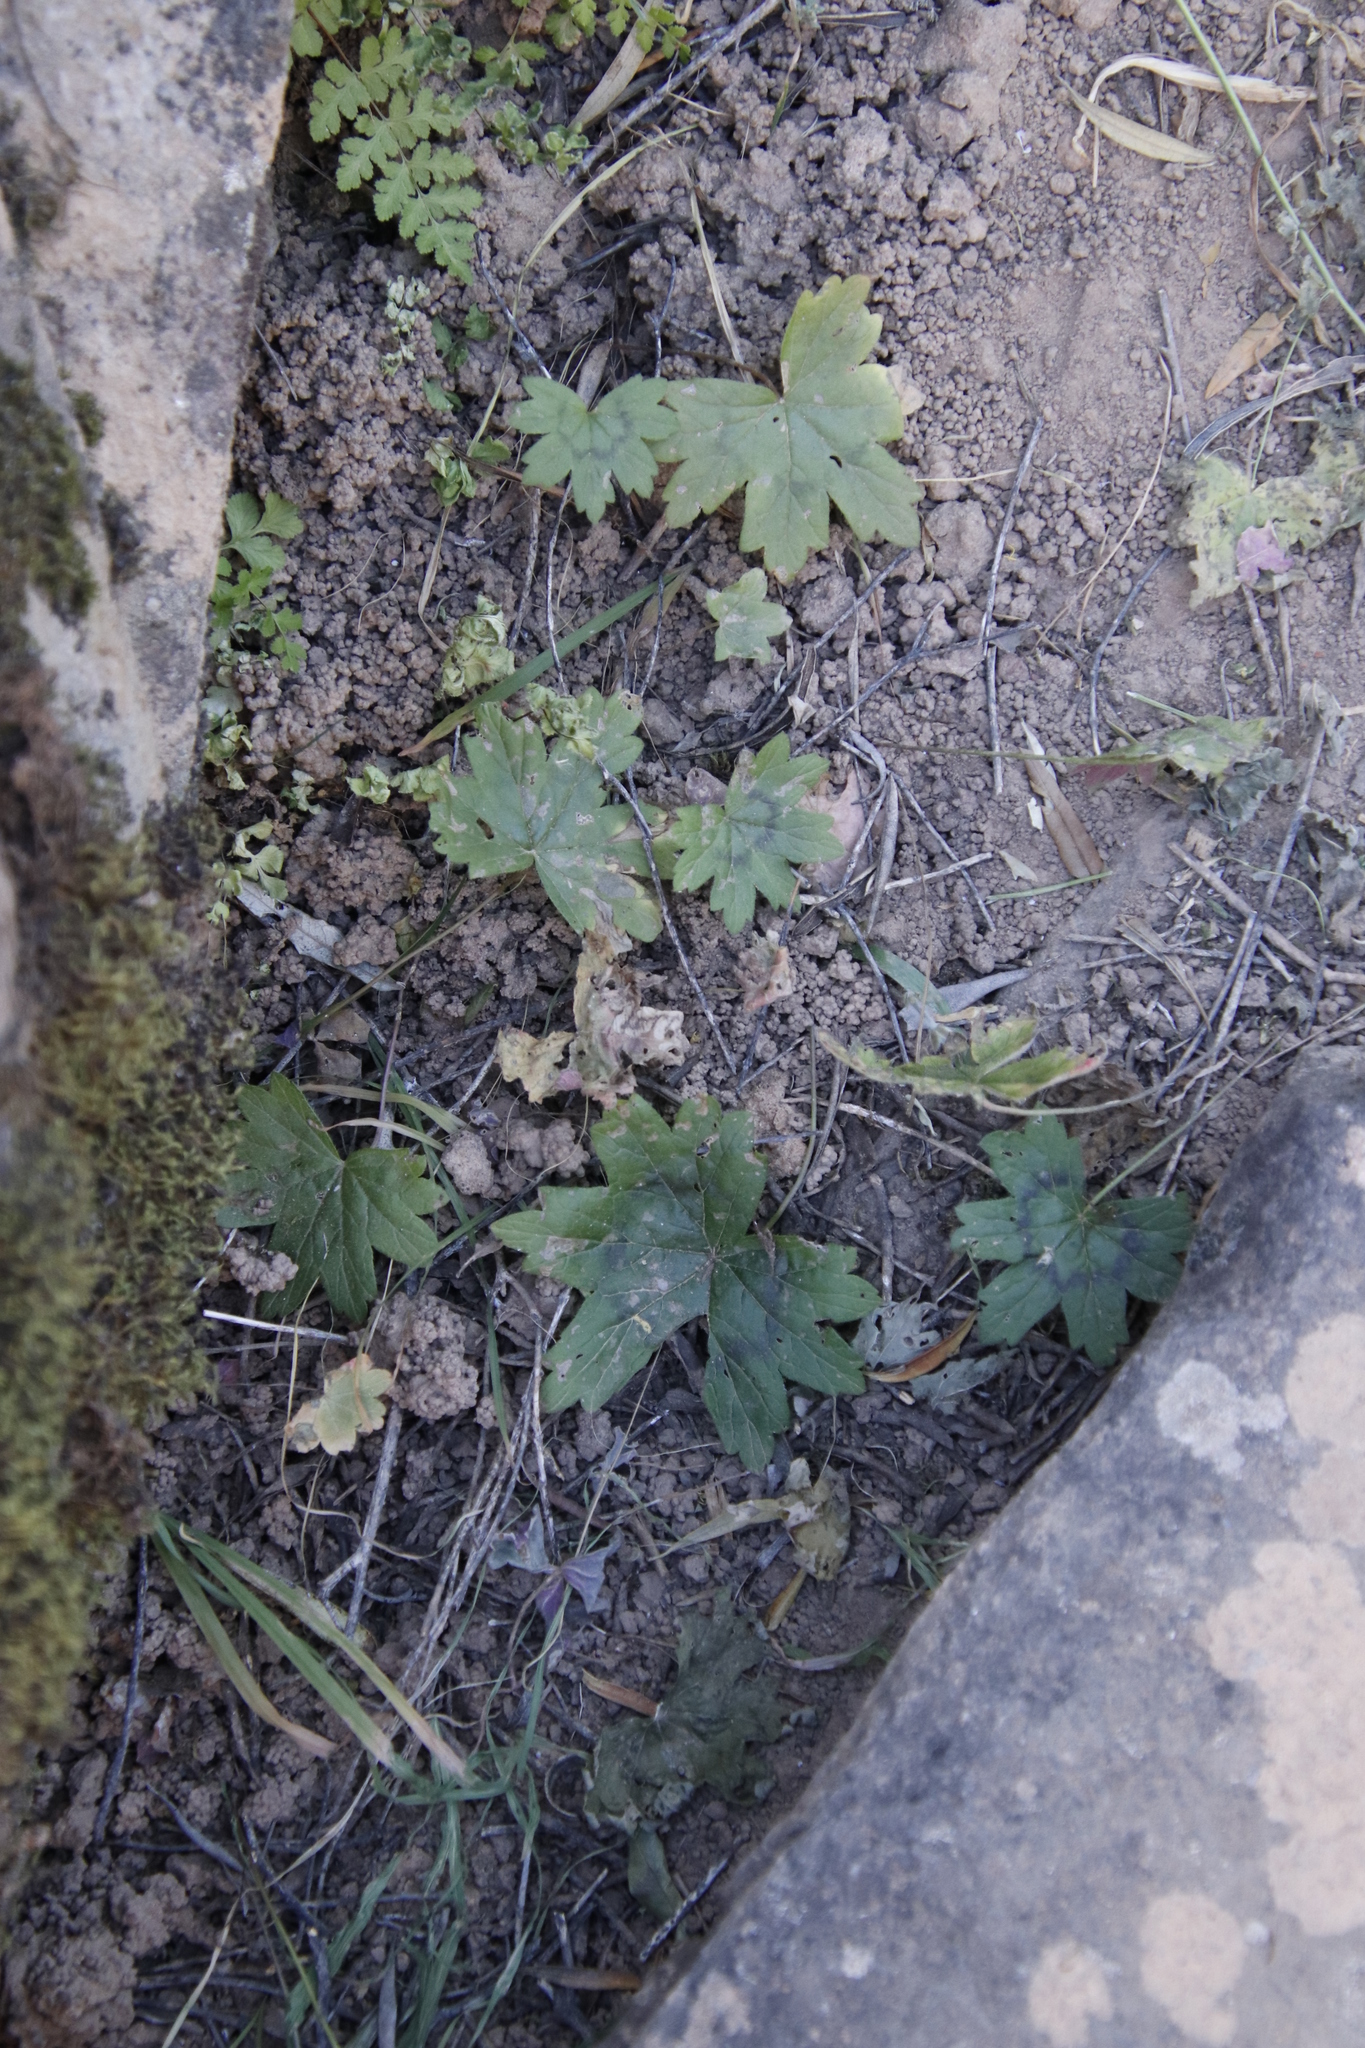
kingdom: Plantae
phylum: Tracheophyta
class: Magnoliopsida
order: Geraniales
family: Geraniaceae
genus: Pelargonium
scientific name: Pelargonium articulatum
